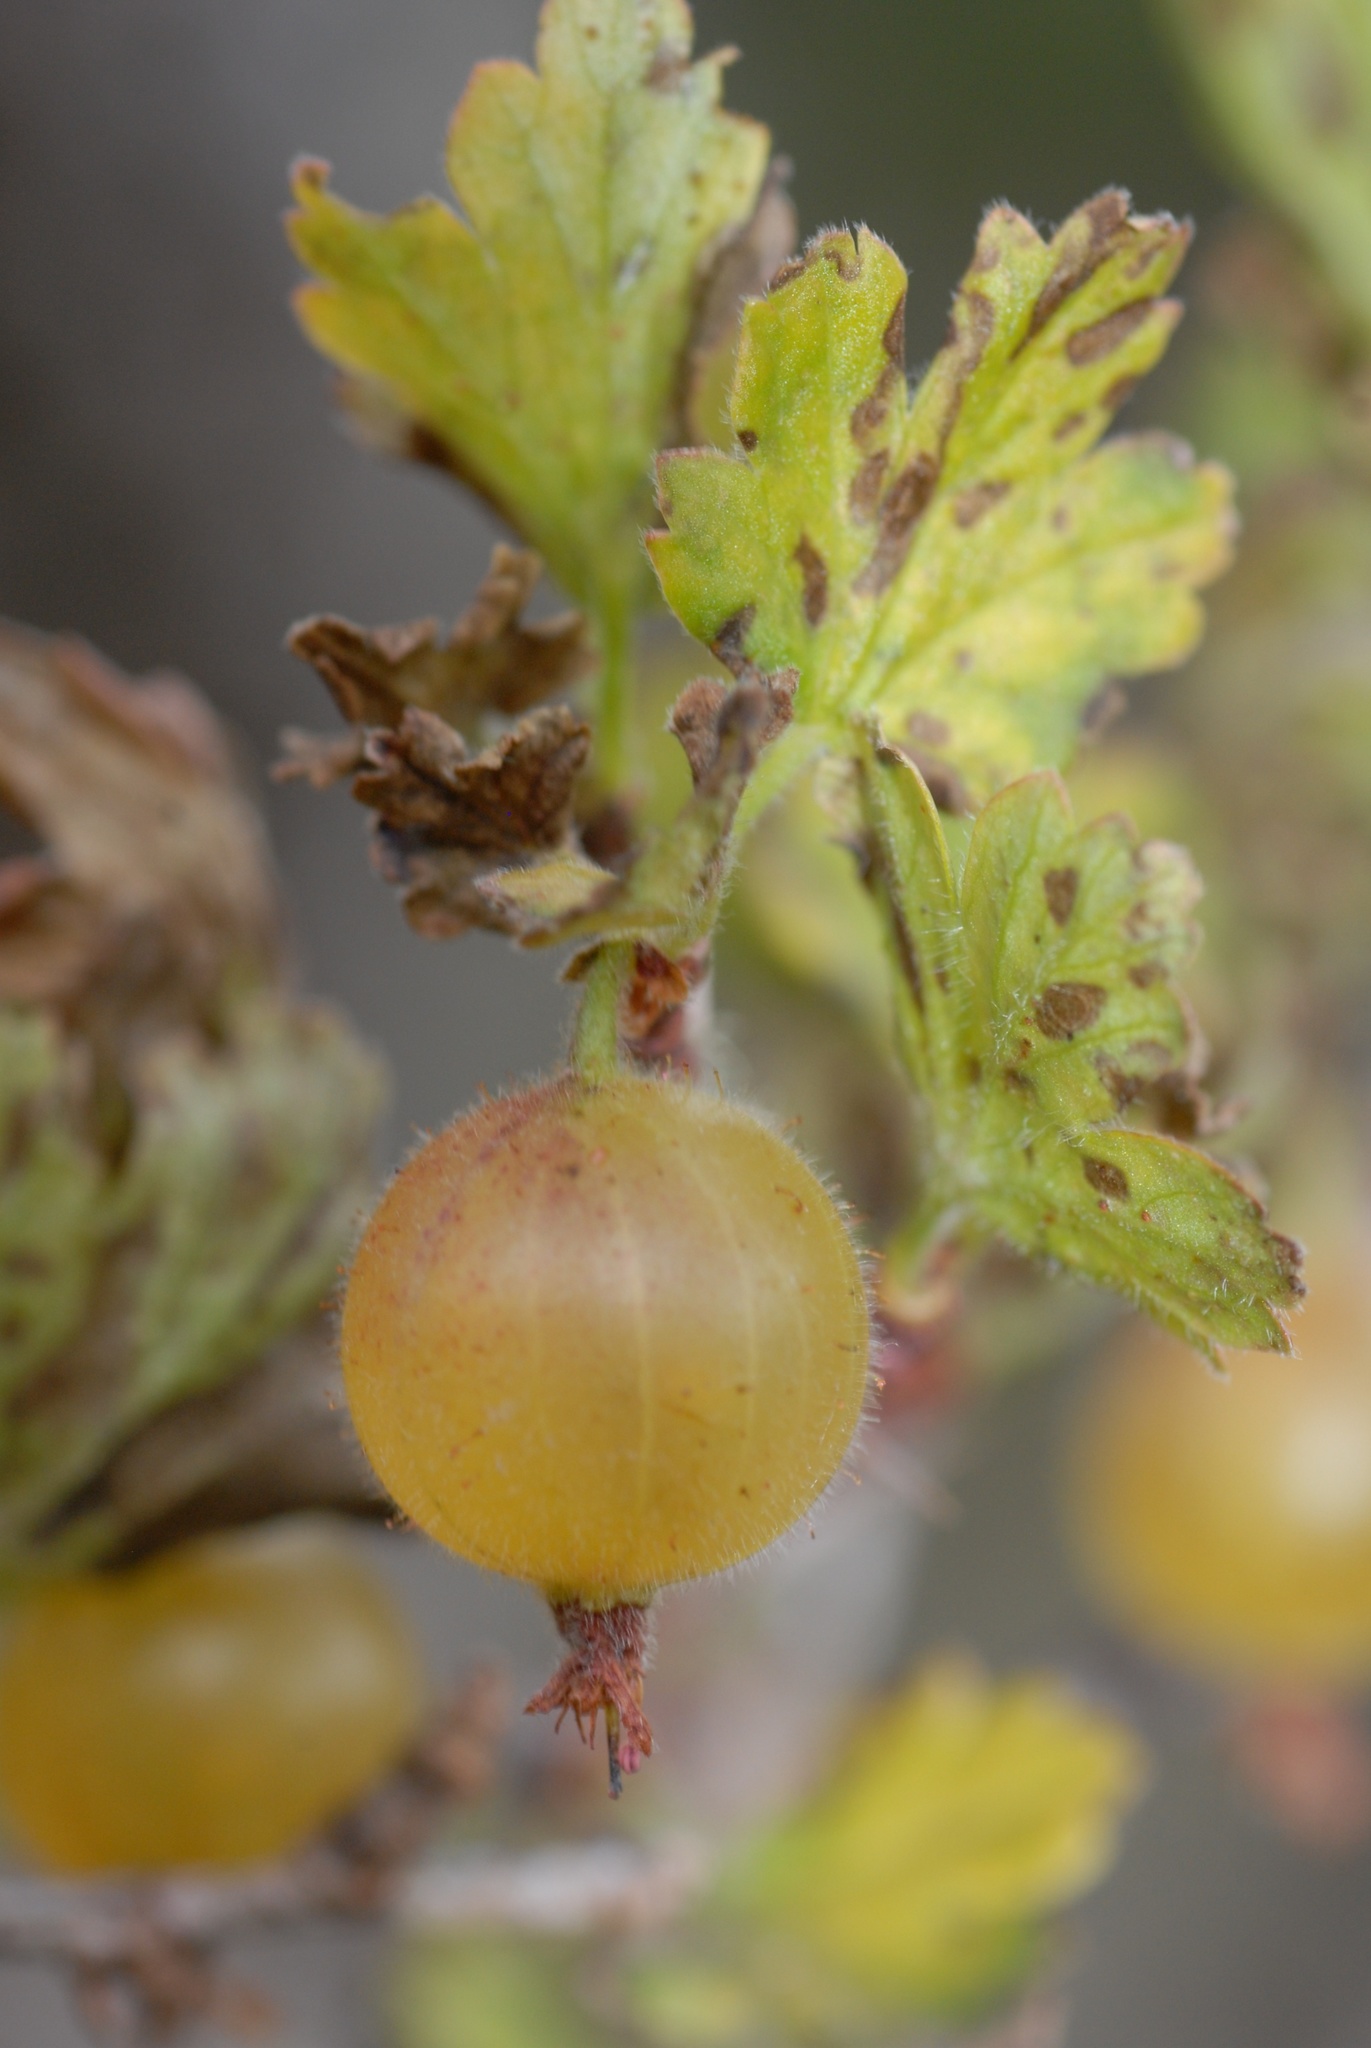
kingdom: Plantae
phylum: Tracheophyta
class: Magnoliopsida
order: Saxifragales
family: Grossulariaceae
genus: Ribes
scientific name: Ribes uva-crispa
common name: Gooseberry
